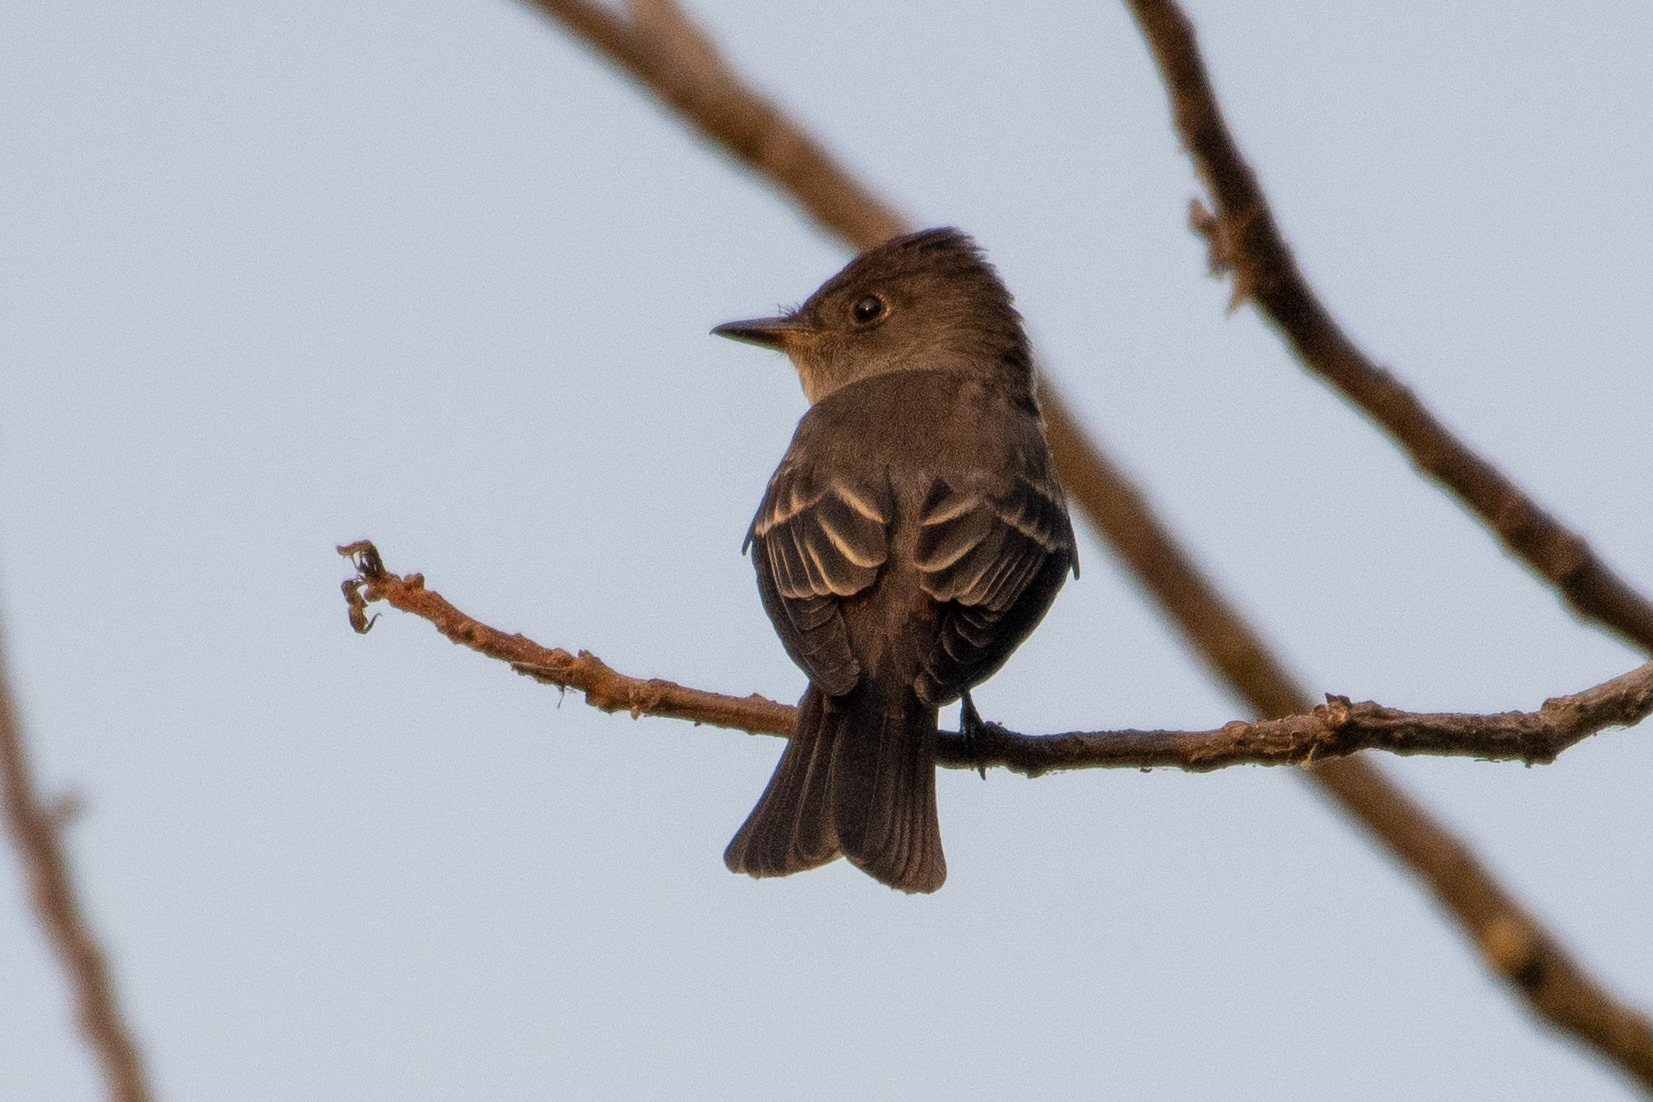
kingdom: Animalia
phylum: Chordata
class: Aves
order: Passeriformes
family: Tyrannidae
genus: Contopus
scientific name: Contopus sordidulus
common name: Western wood-pewee
